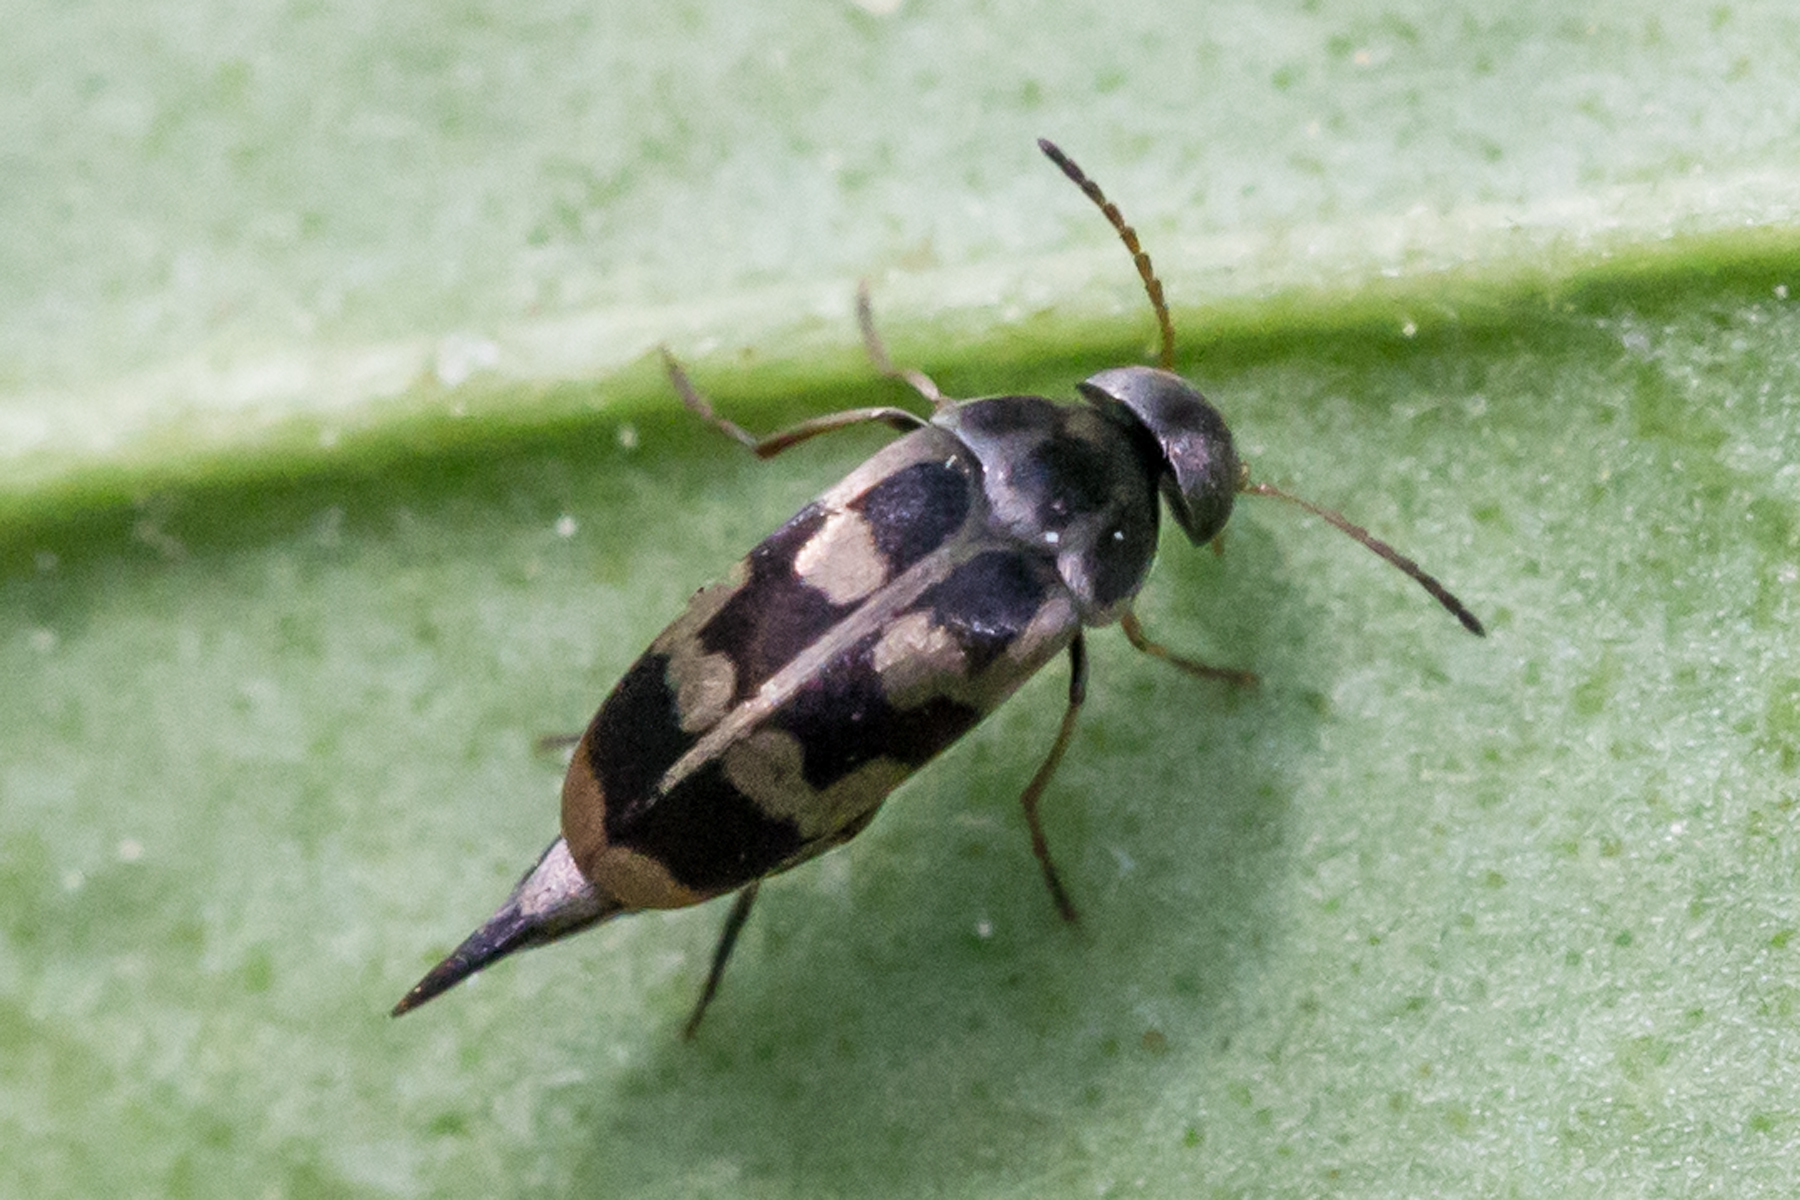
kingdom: Animalia
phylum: Arthropoda
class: Insecta
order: Coleoptera
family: Mordellidae
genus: Falsomordellistena
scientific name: Falsomordellistena pubescens
